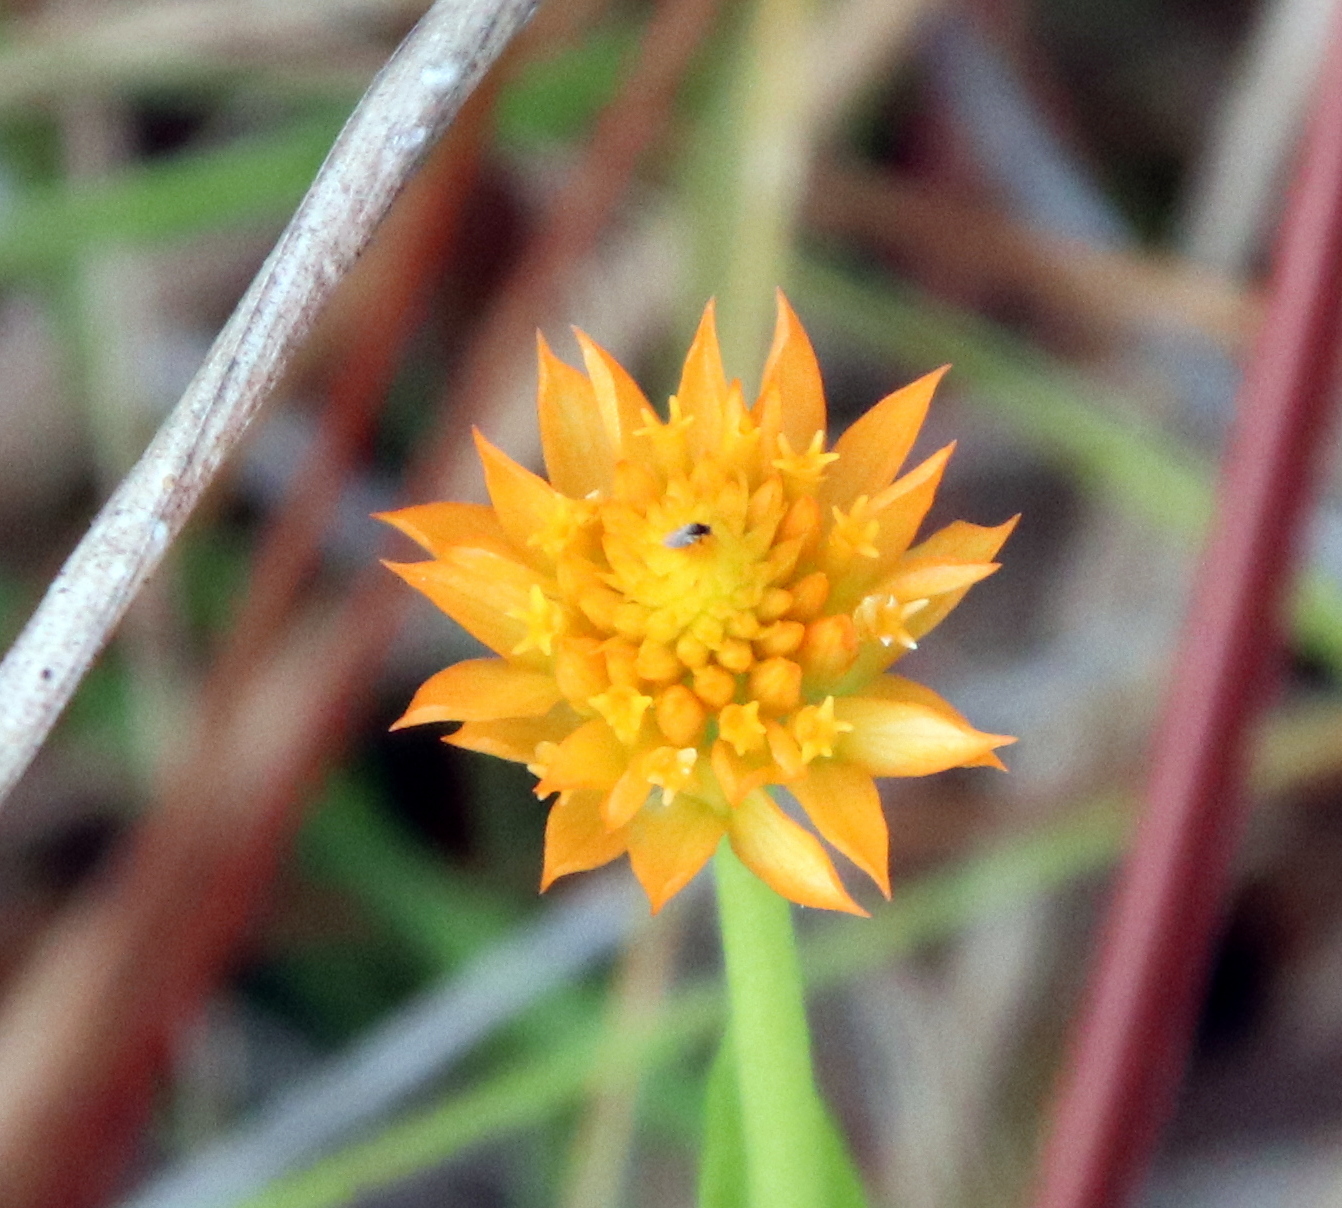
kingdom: Plantae
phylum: Tracheophyta
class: Magnoliopsida
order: Fabales
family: Polygalaceae
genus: Polygala
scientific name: Polygala lutea
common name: Orange milkwort
